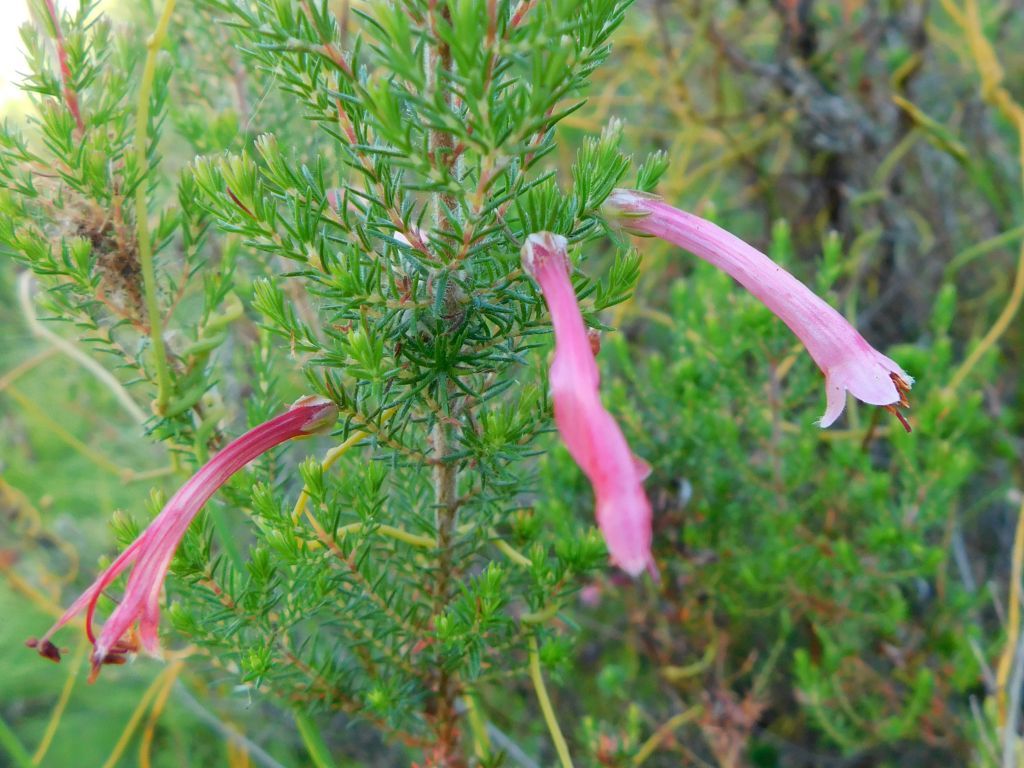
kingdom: Plantae
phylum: Tracheophyta
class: Magnoliopsida
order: Ericales
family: Ericaceae
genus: Erica
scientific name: Erica curviflora
